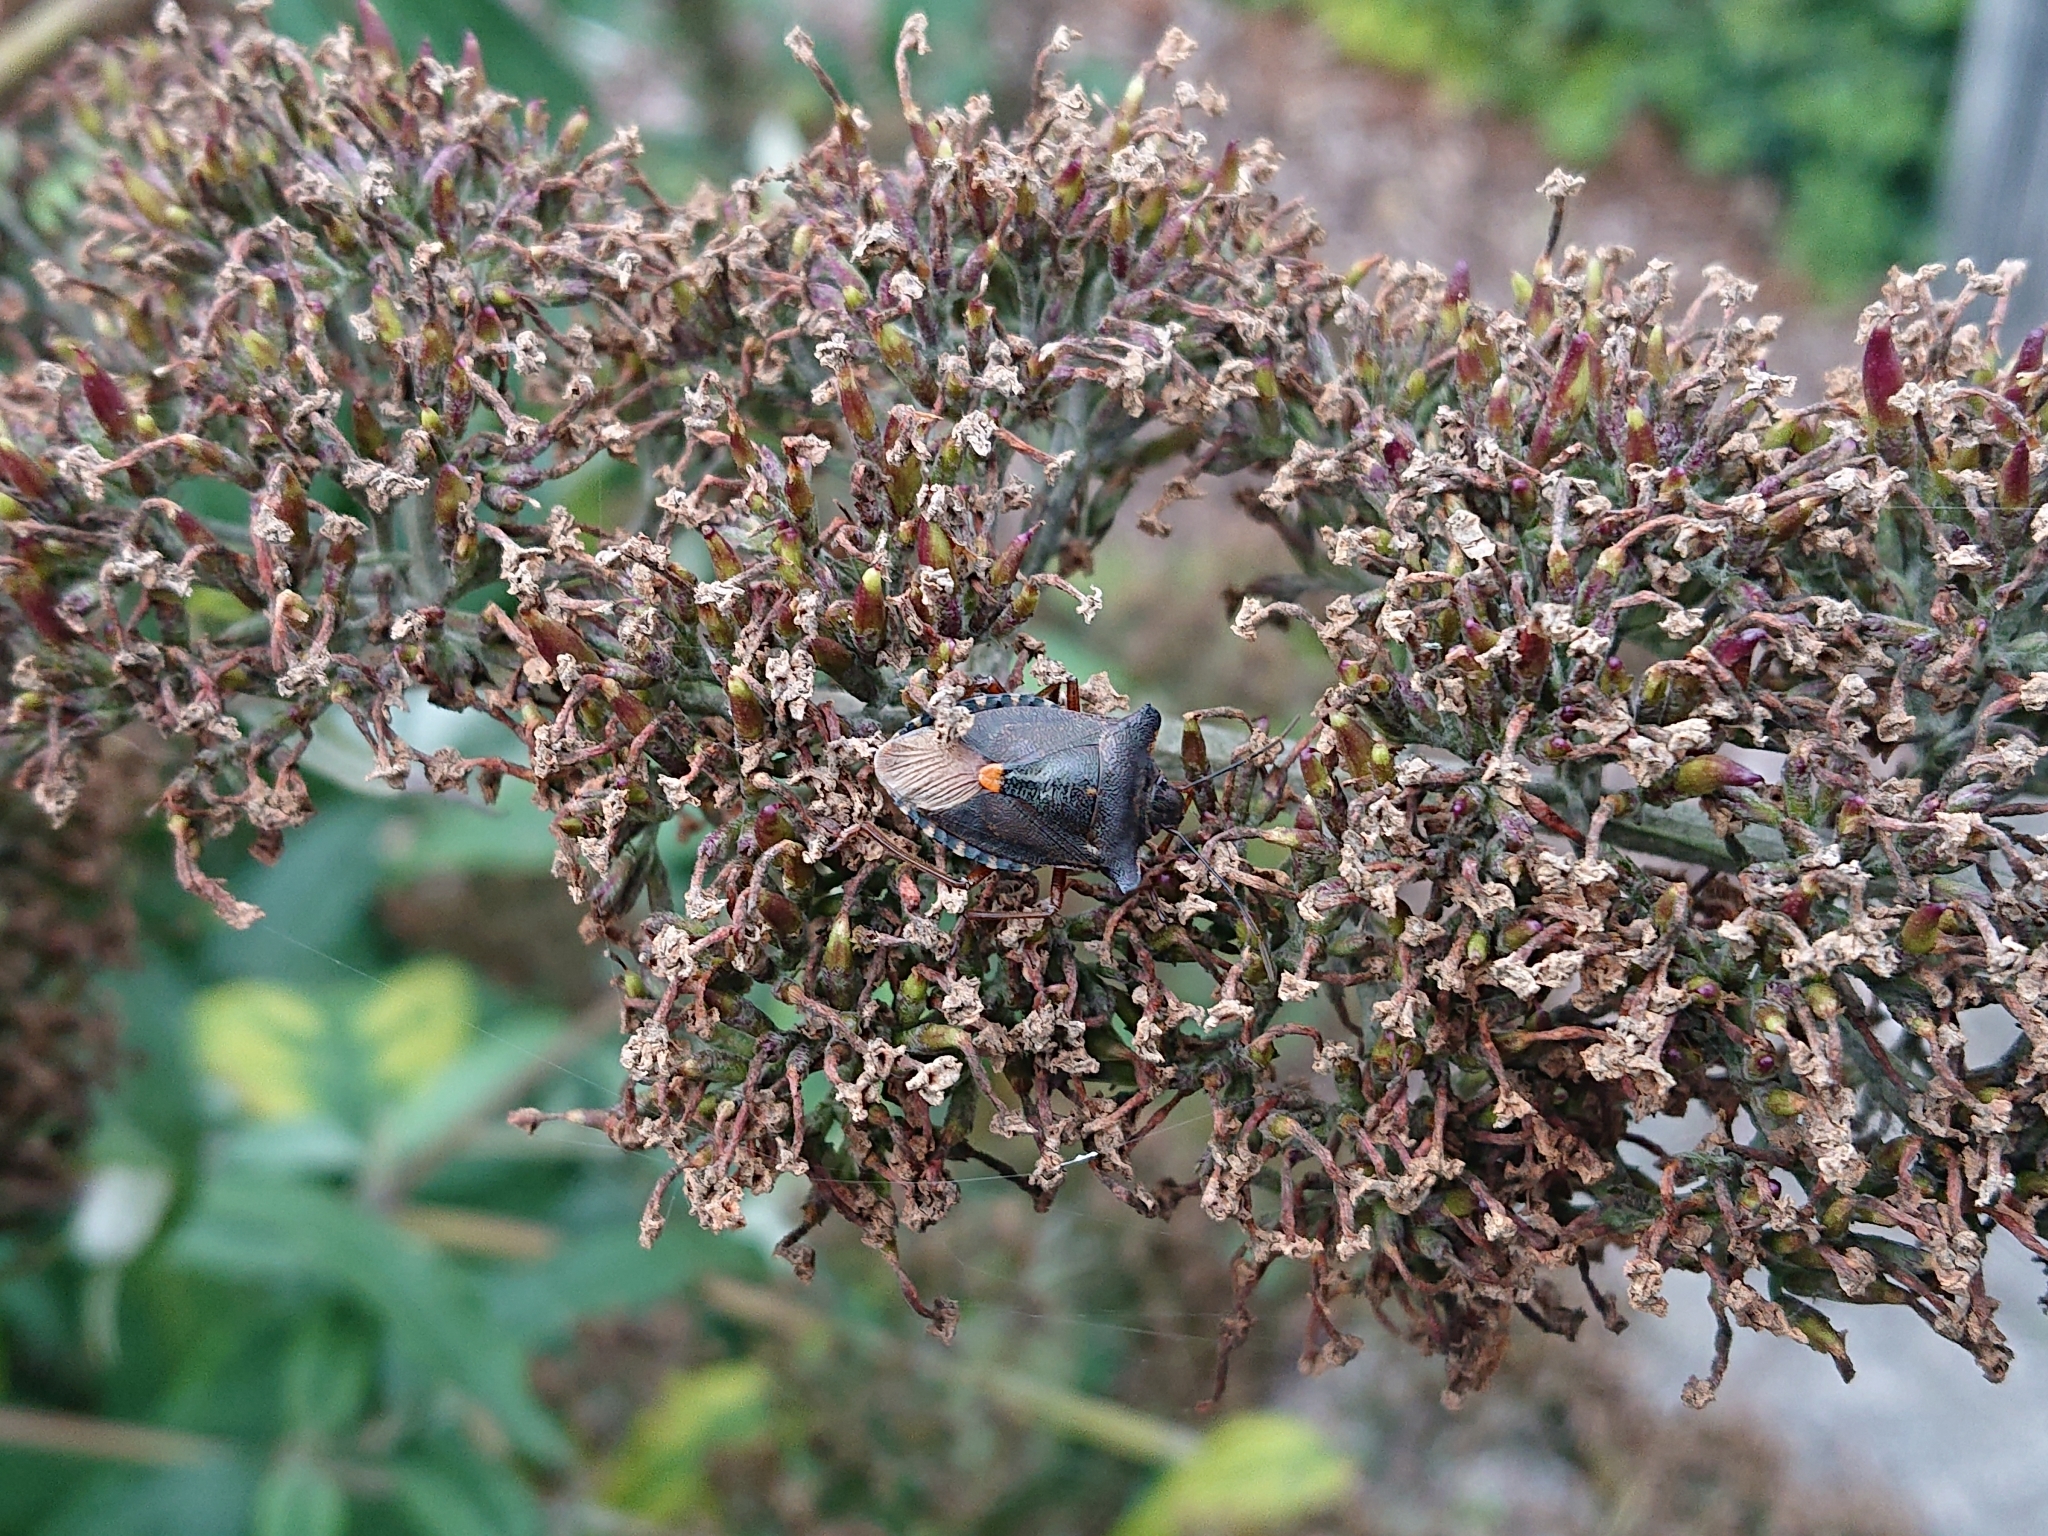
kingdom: Animalia
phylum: Arthropoda
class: Insecta
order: Hemiptera
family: Pentatomidae
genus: Pentatoma
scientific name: Pentatoma rufipes
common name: Forest bug
